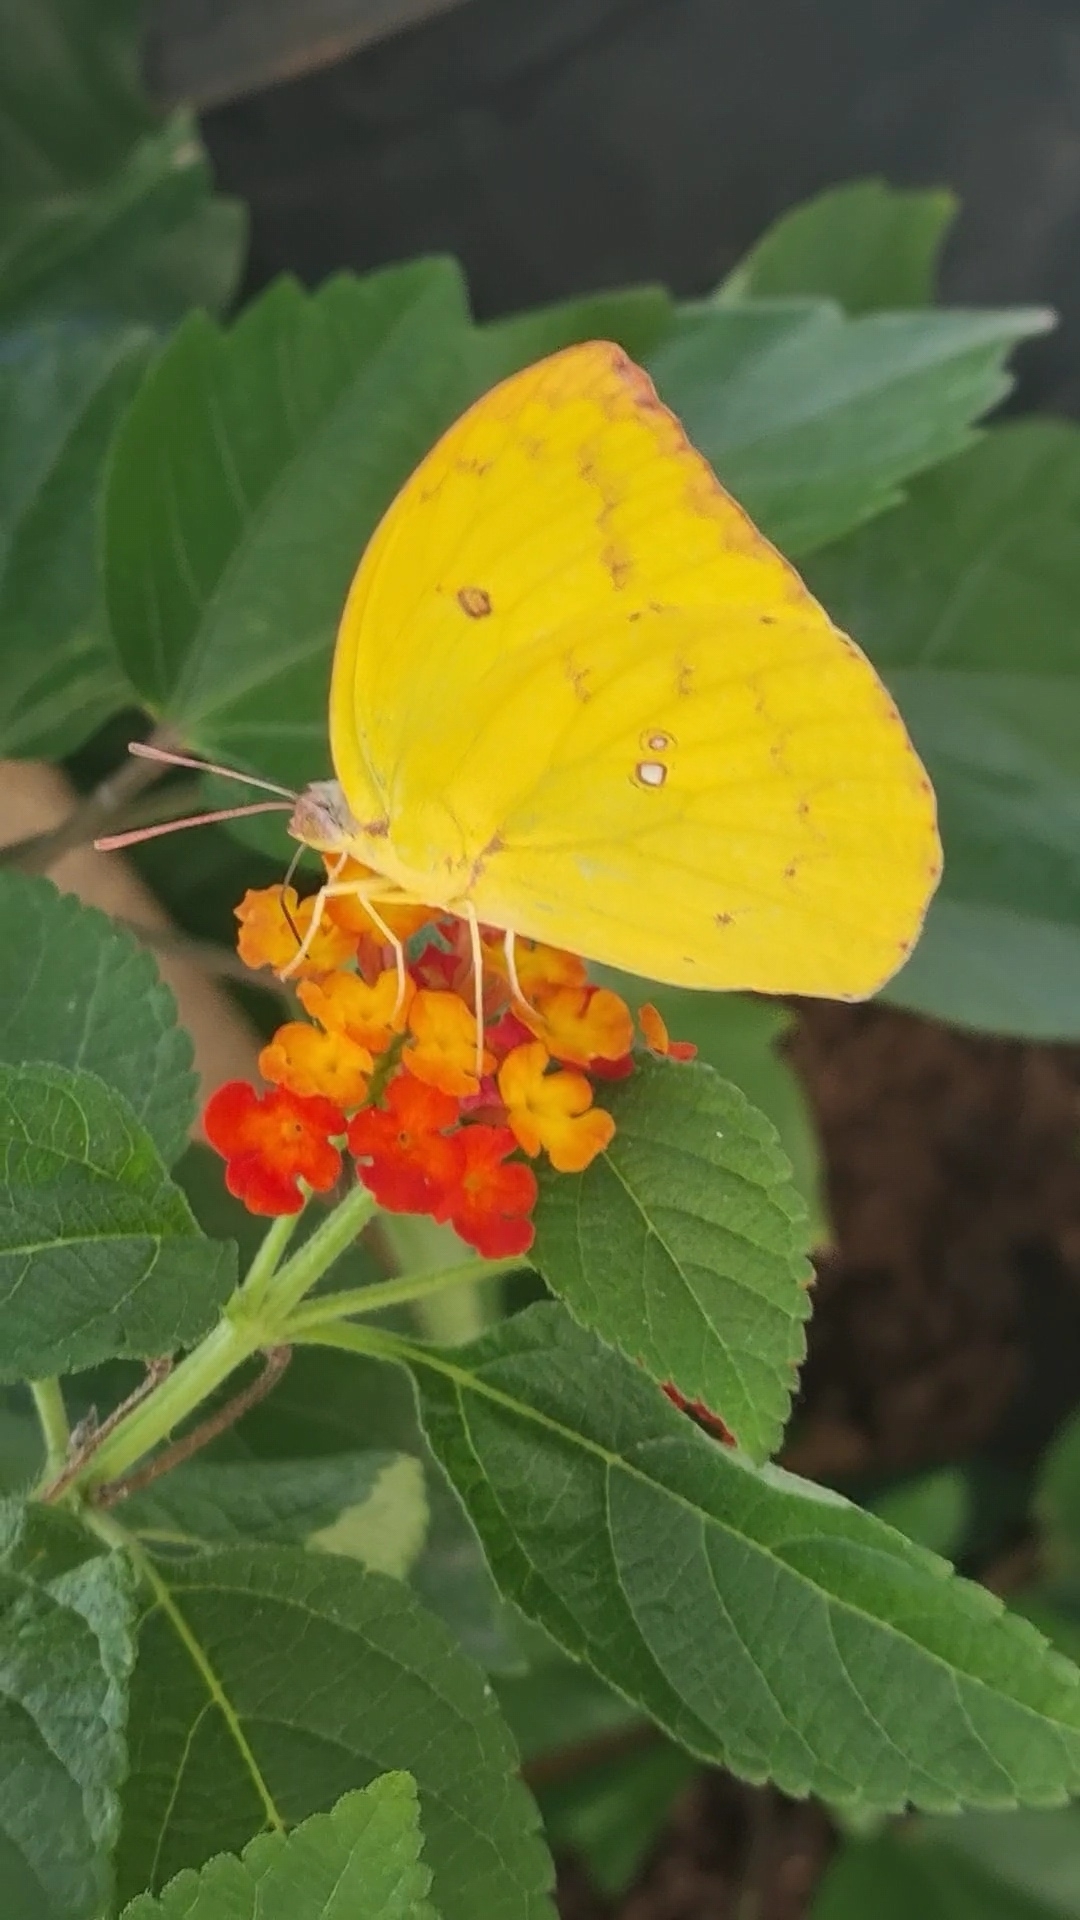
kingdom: Animalia
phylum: Arthropoda
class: Insecta
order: Lepidoptera
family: Pieridae
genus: Catopsilia
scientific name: Catopsilia pomona
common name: Common emigrant
